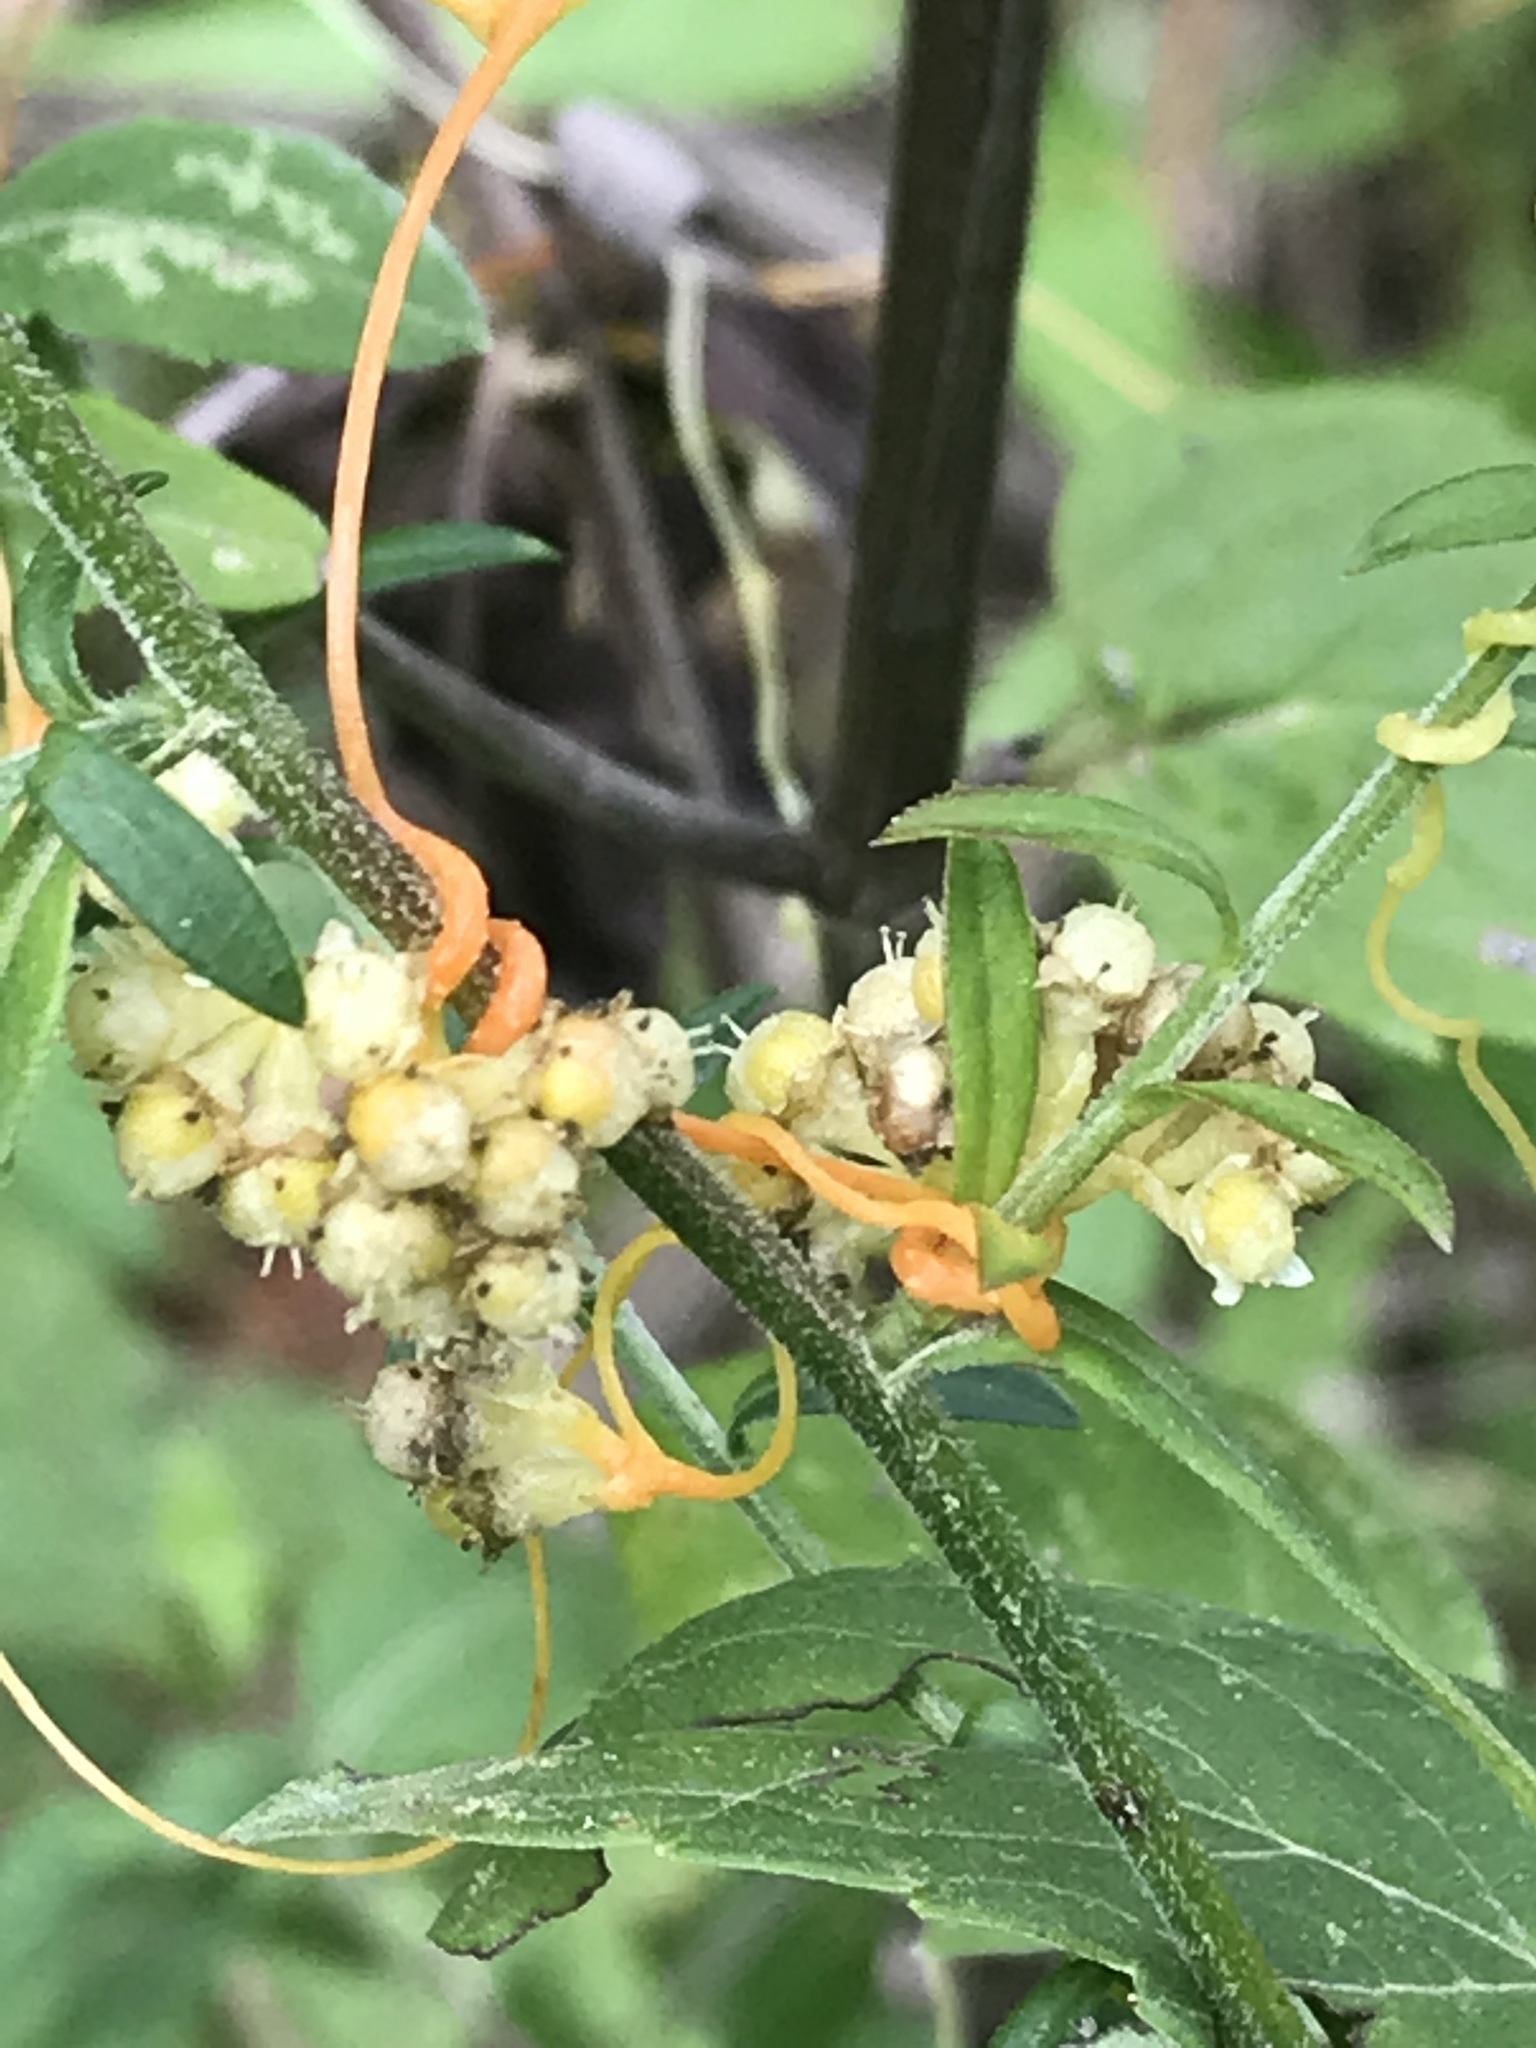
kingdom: Plantae
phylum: Tracheophyta
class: Magnoliopsida
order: Solanales
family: Convolvulaceae
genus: Cuscuta
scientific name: Cuscuta cuspidata
